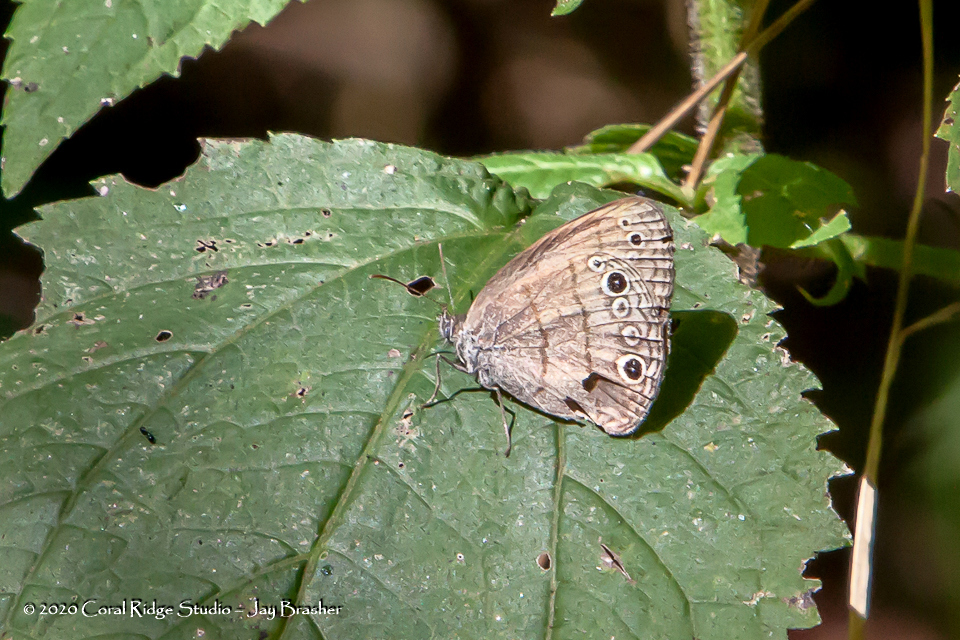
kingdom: Animalia
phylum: Arthropoda
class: Insecta
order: Lepidoptera
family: Nymphalidae
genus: Hermeuptychia
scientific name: Hermeuptychia hermes
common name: Hermes satyr
